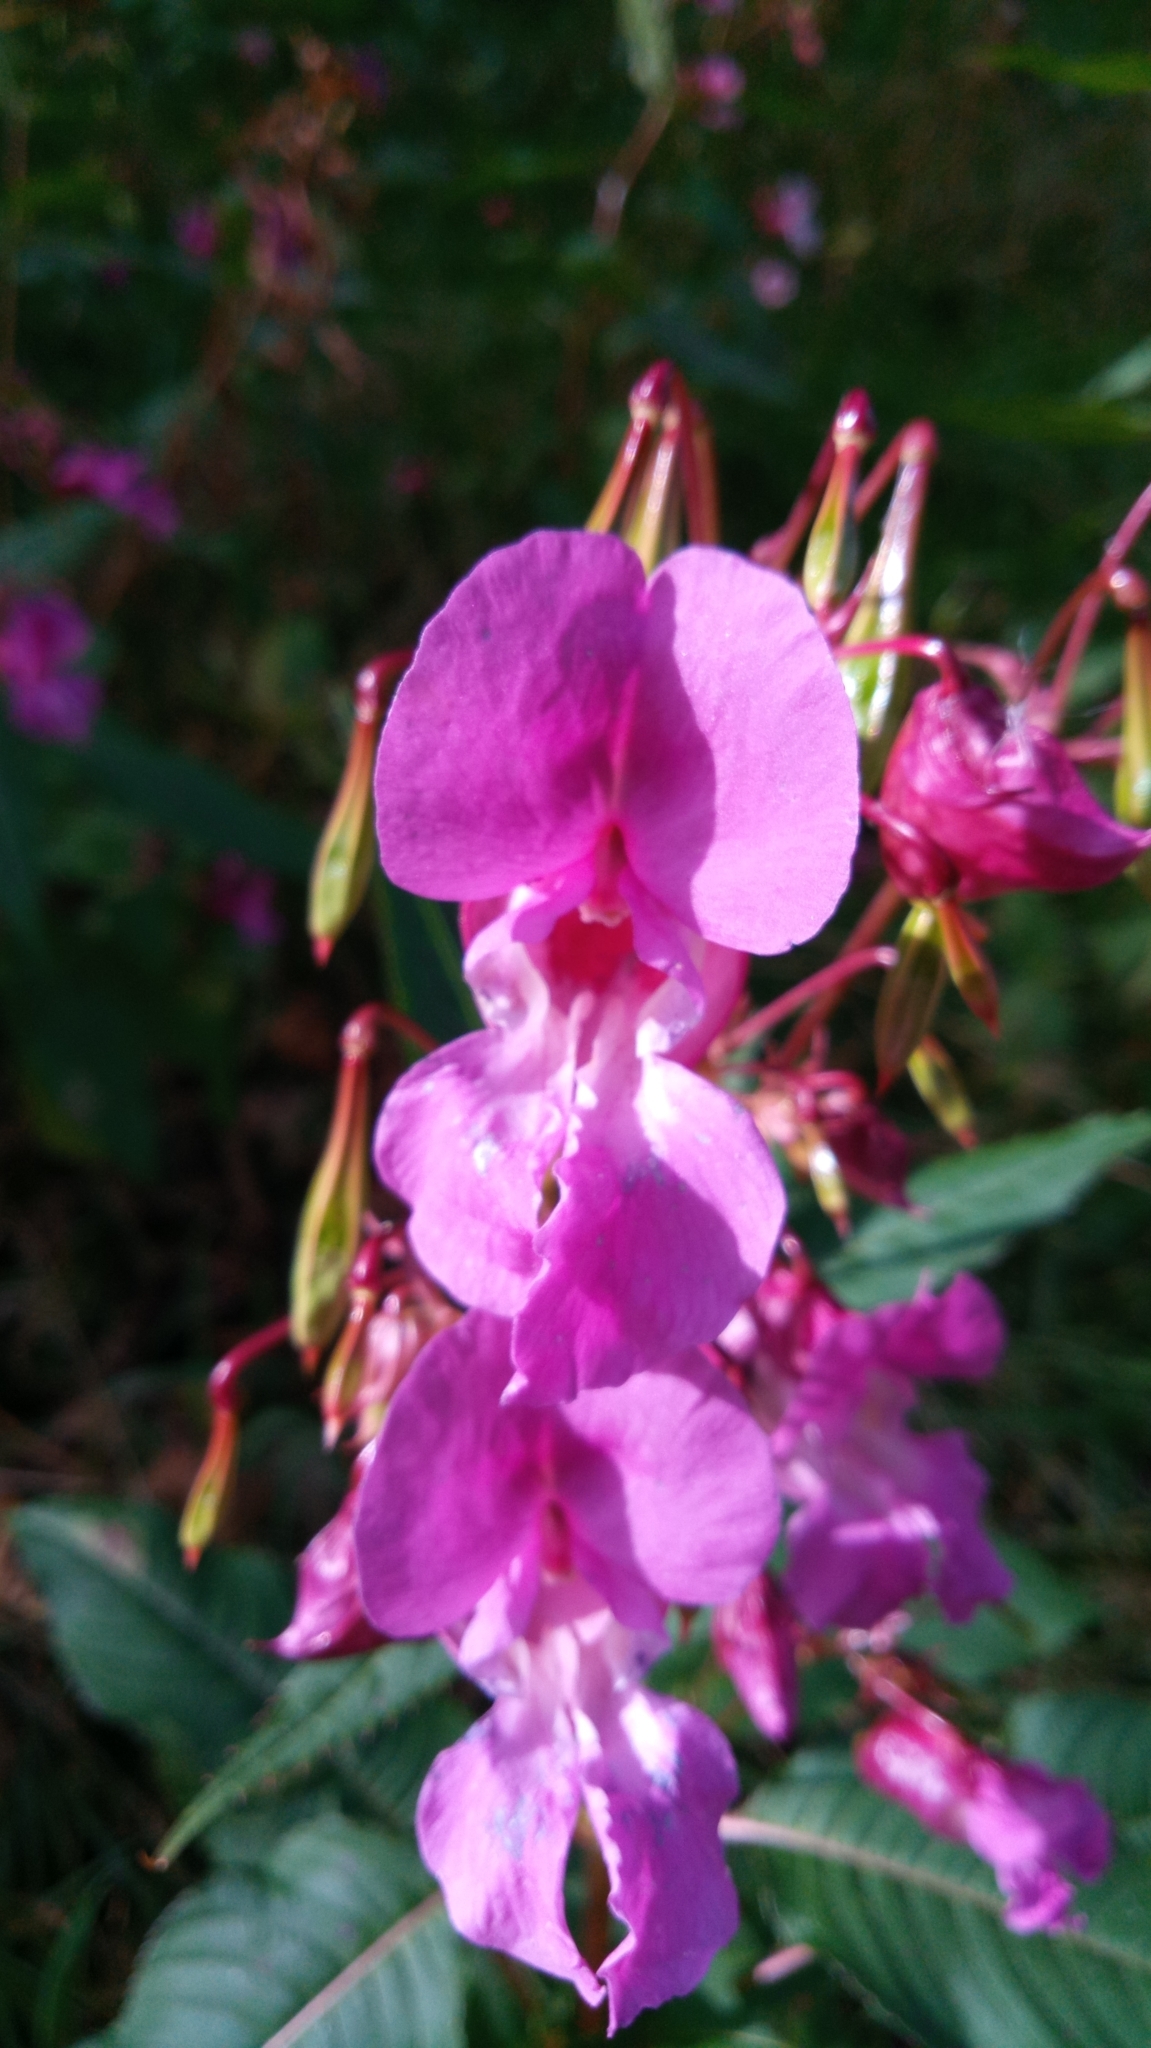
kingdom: Plantae
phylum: Tracheophyta
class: Magnoliopsida
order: Ericales
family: Balsaminaceae
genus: Impatiens
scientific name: Impatiens glandulifera
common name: Himalayan balsam
